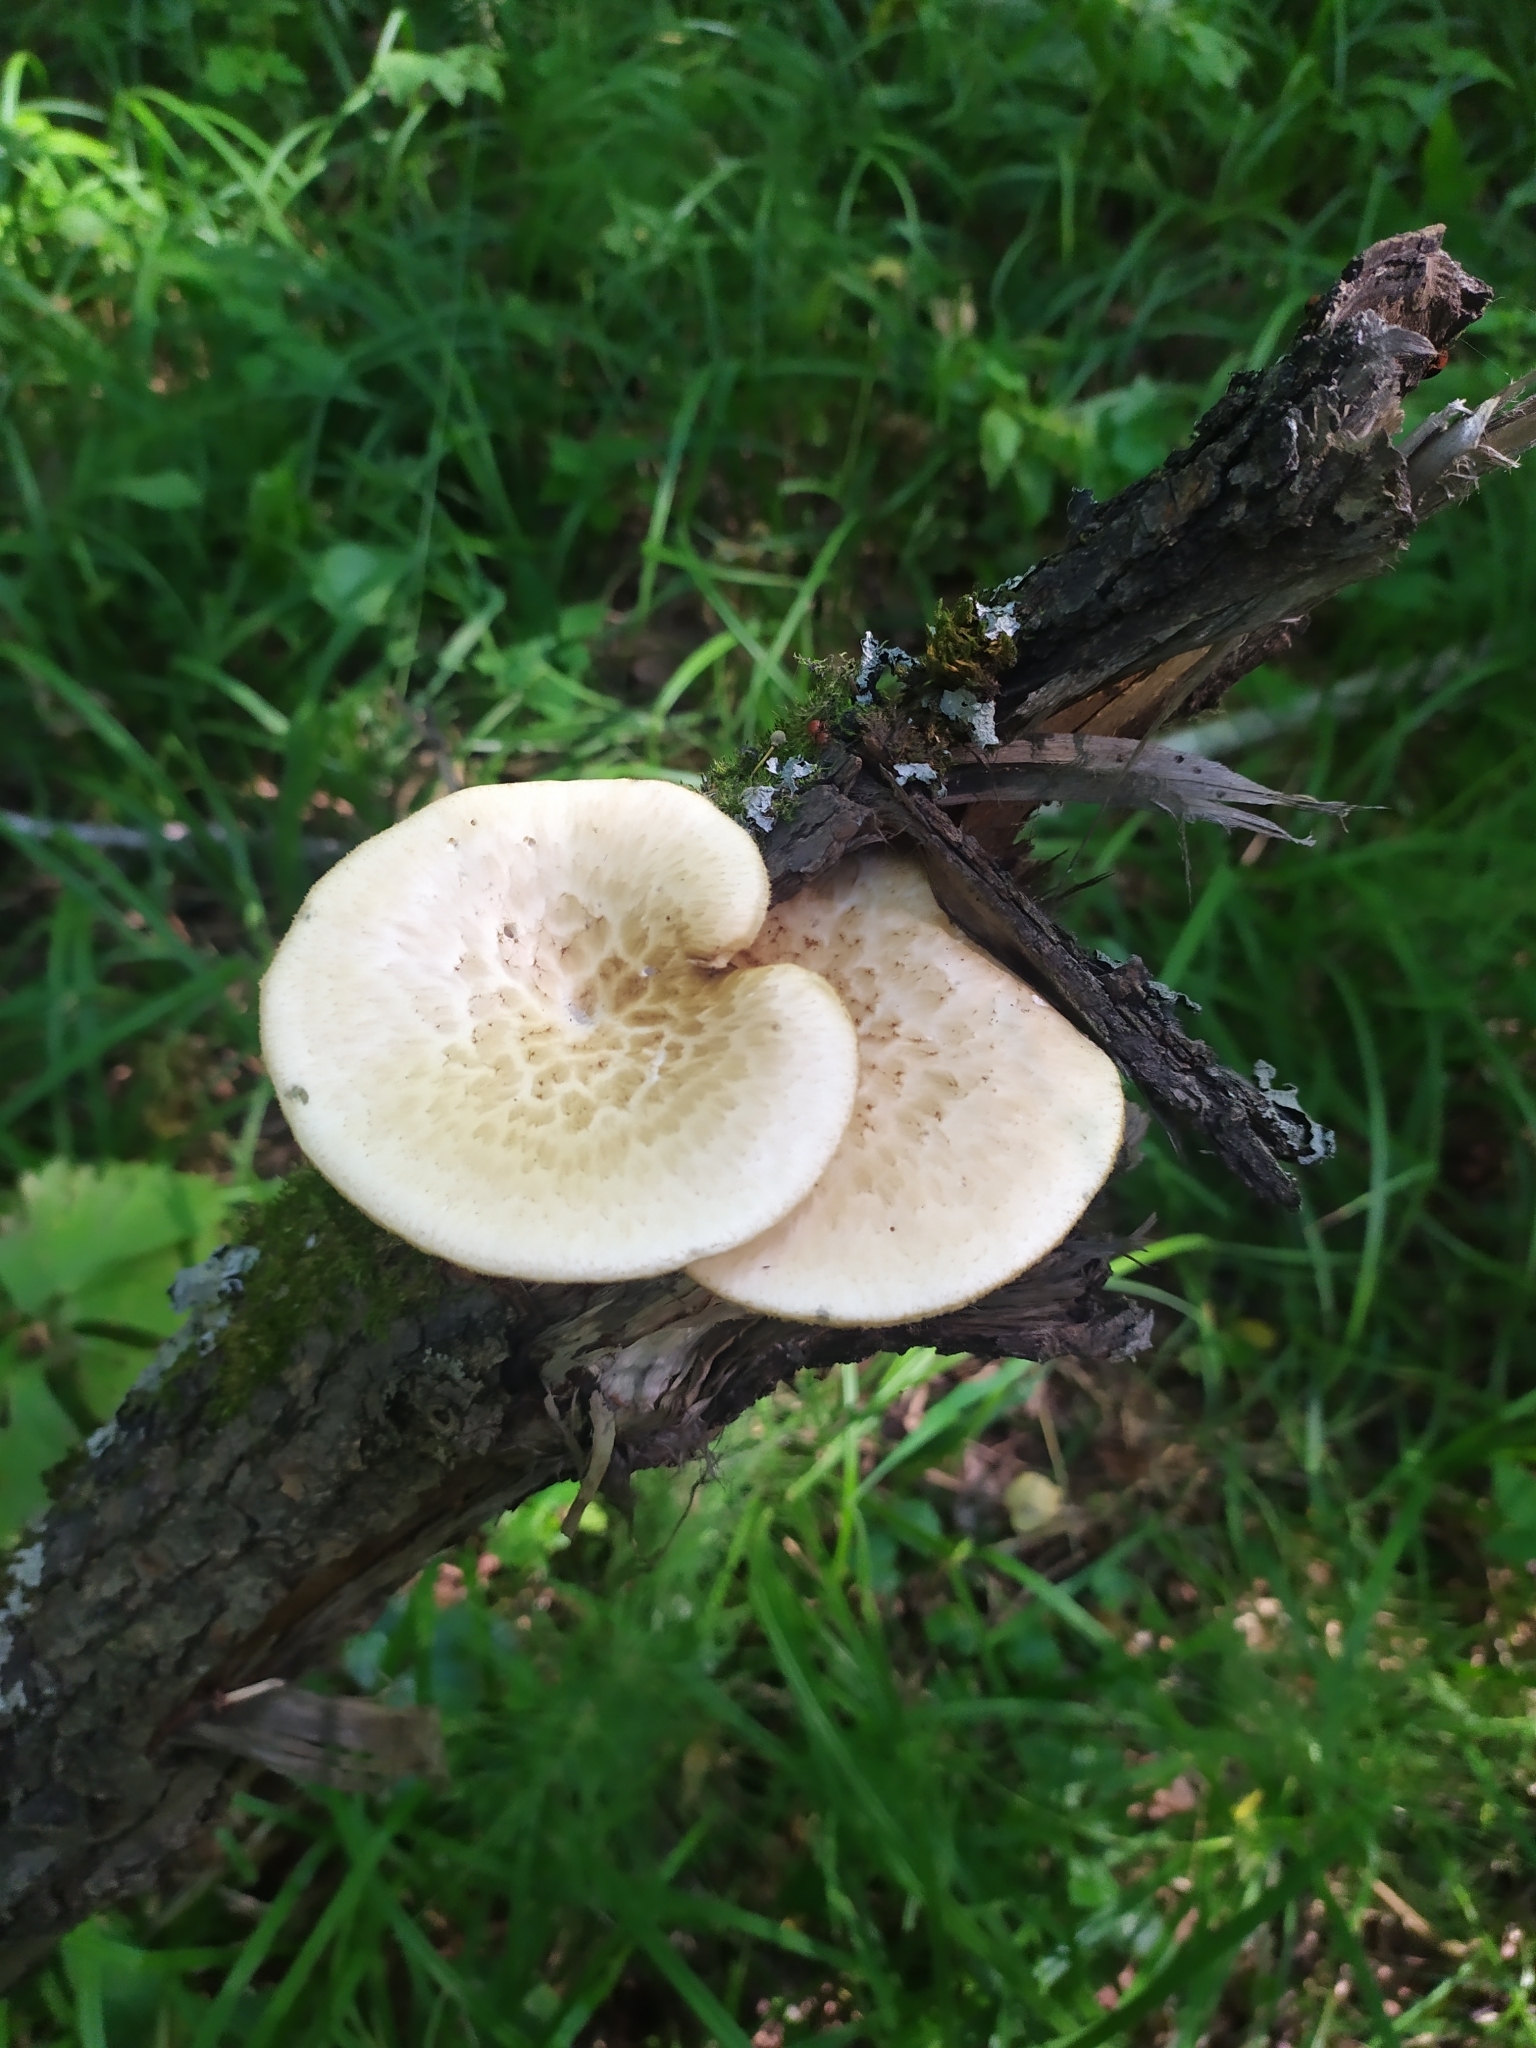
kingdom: Fungi
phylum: Basidiomycota
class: Agaricomycetes
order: Polyporales
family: Polyporaceae
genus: Cerioporus
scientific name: Cerioporus squamosus
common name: Dryad's saddle
